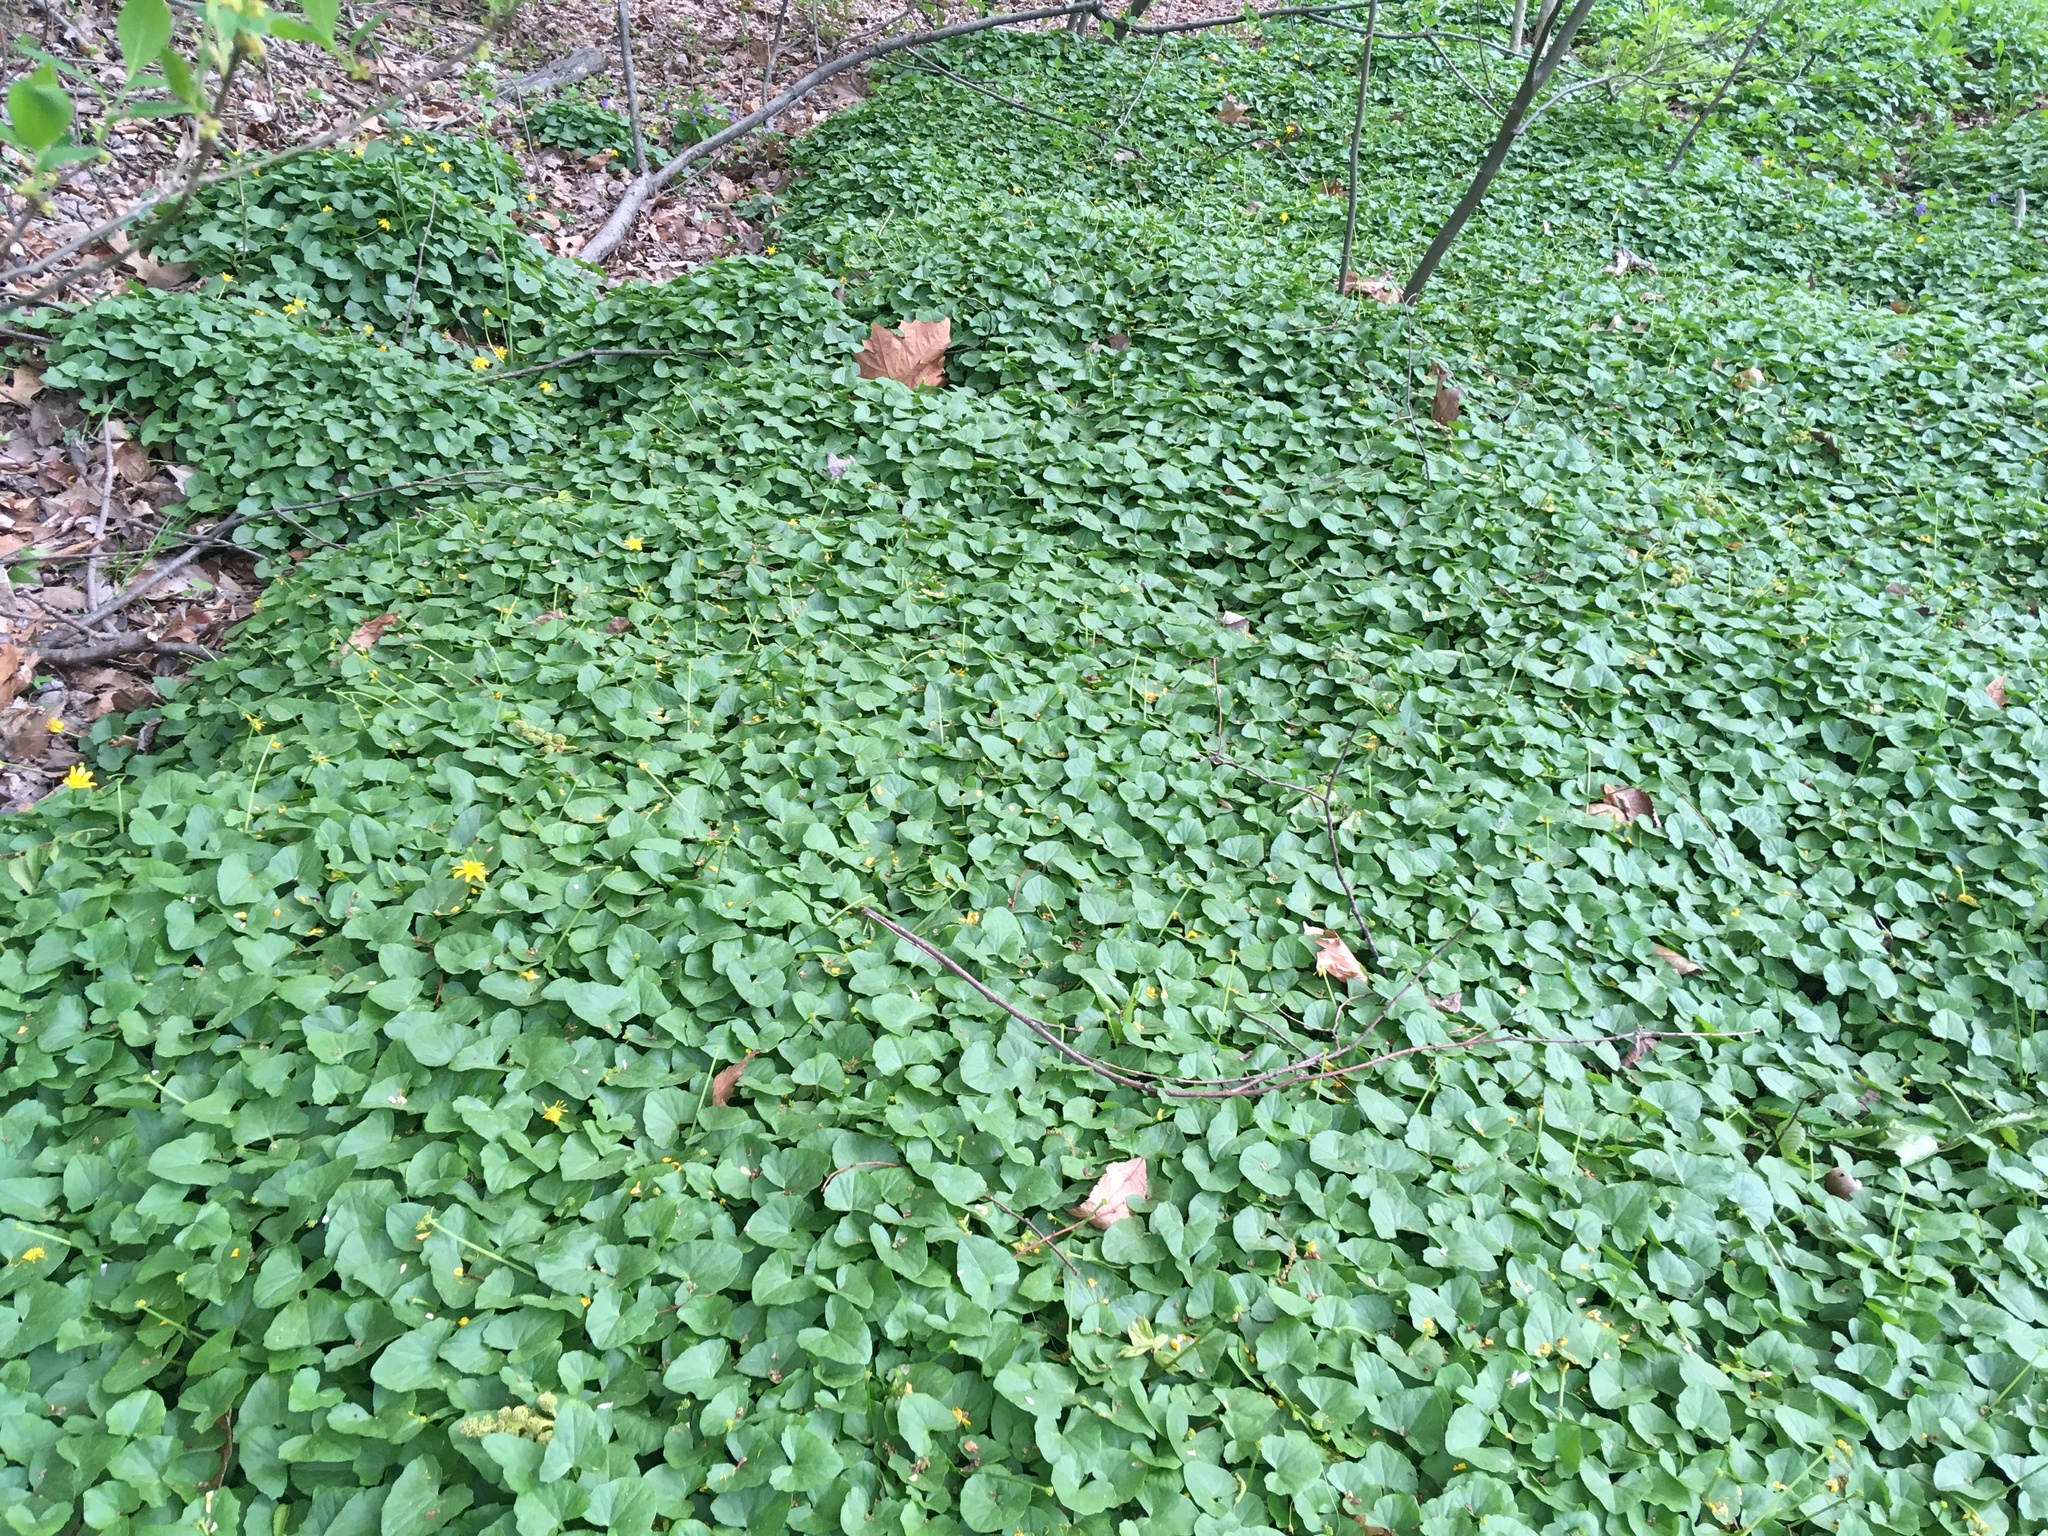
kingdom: Plantae
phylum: Tracheophyta
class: Magnoliopsida
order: Ranunculales
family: Ranunculaceae
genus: Ficaria
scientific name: Ficaria verna
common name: Lesser celandine
